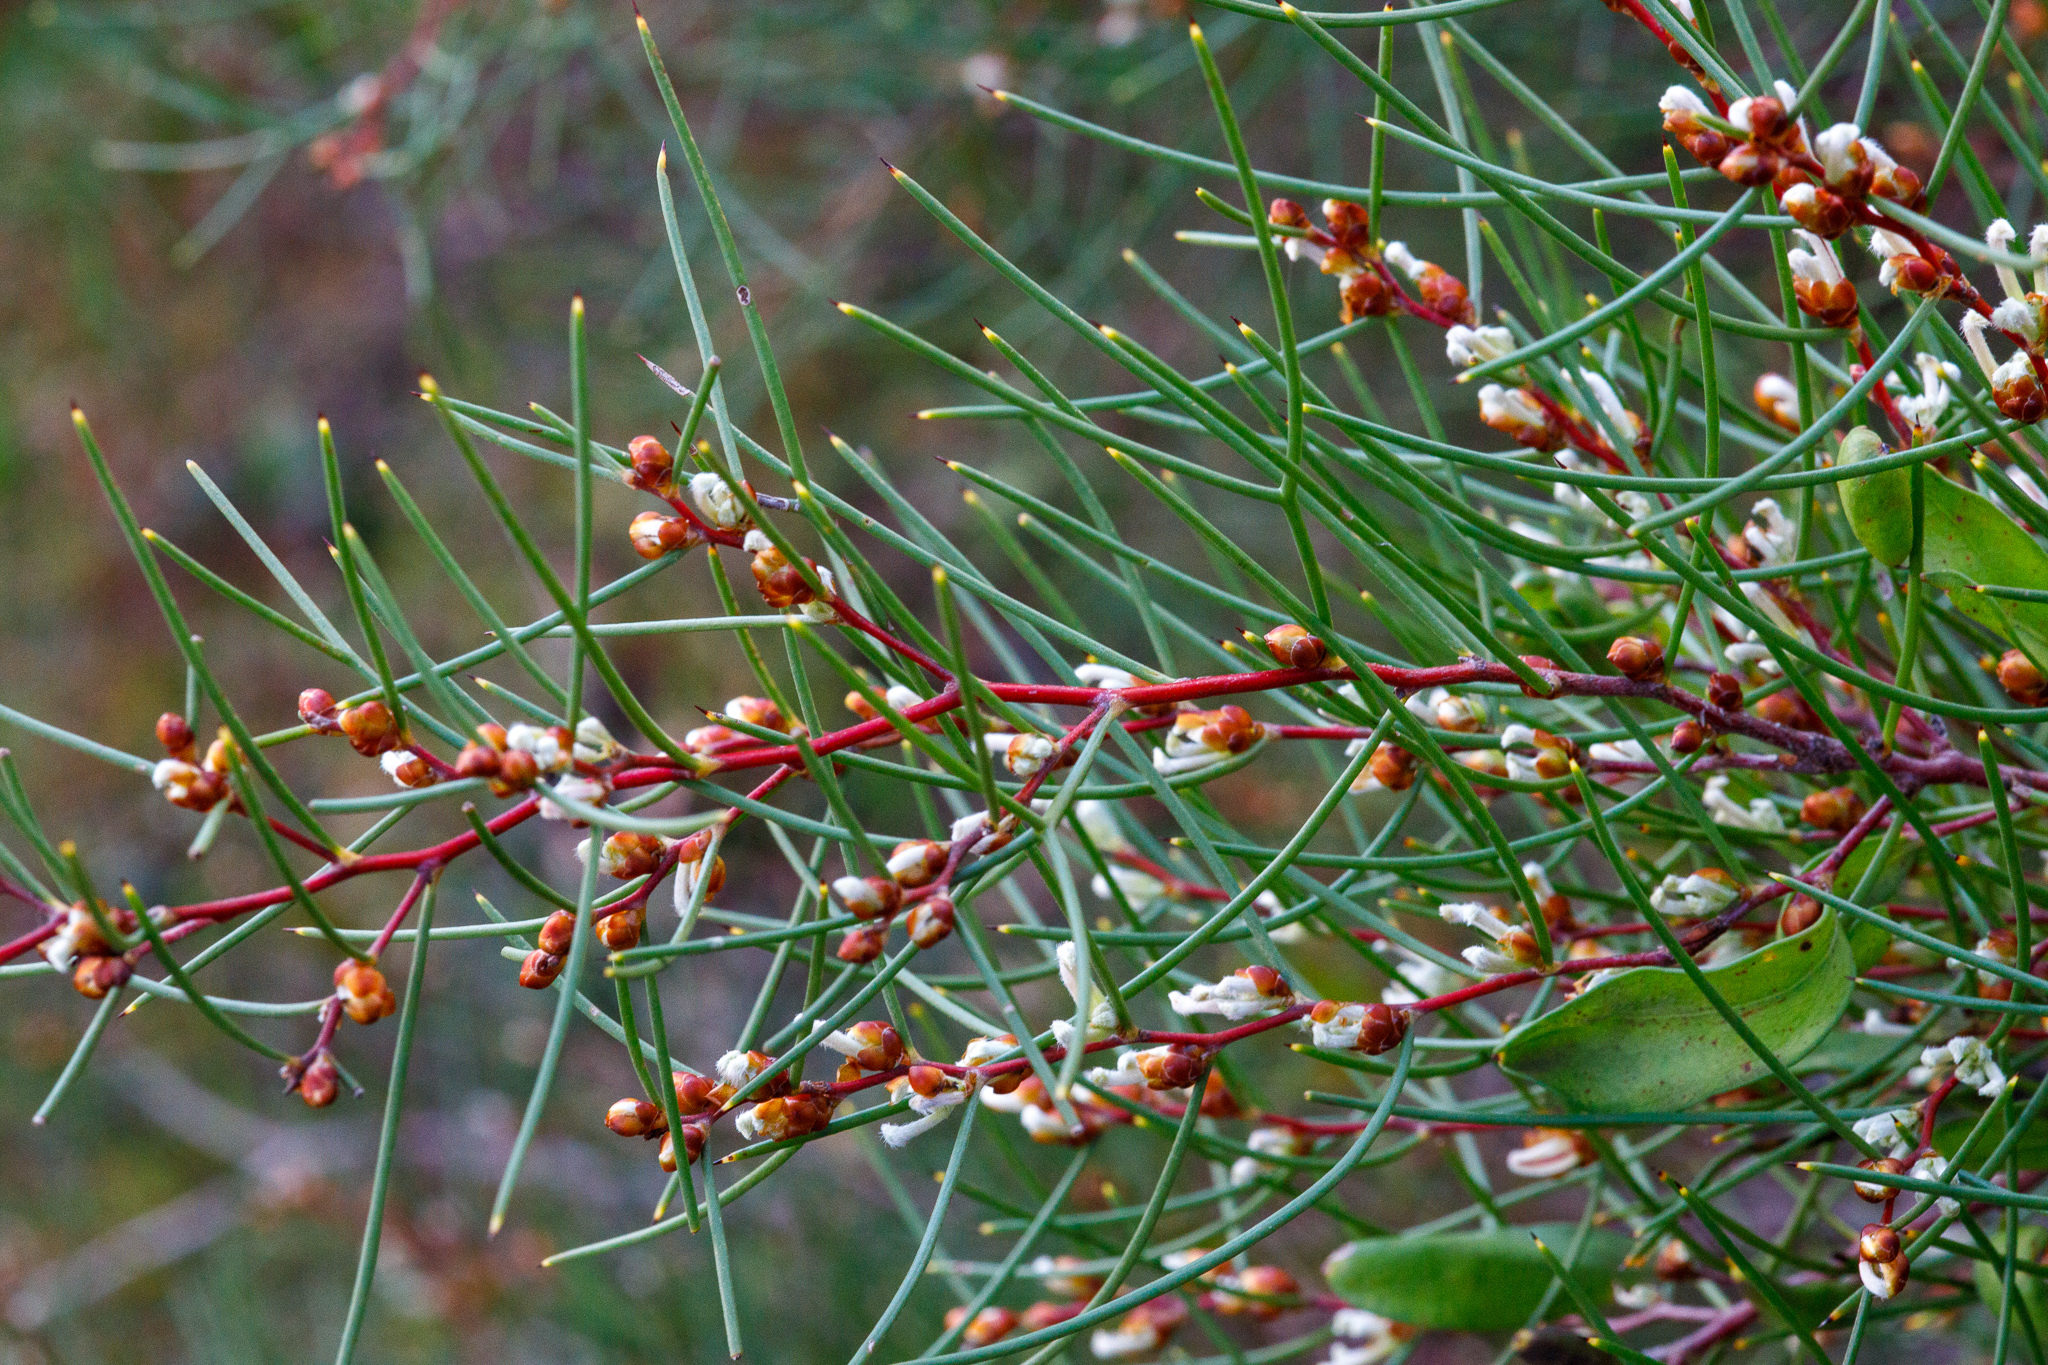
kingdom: Plantae
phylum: Tracheophyta
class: Magnoliopsida
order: Proteales
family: Proteaceae
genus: Hakea
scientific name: Hakea trifurcata
